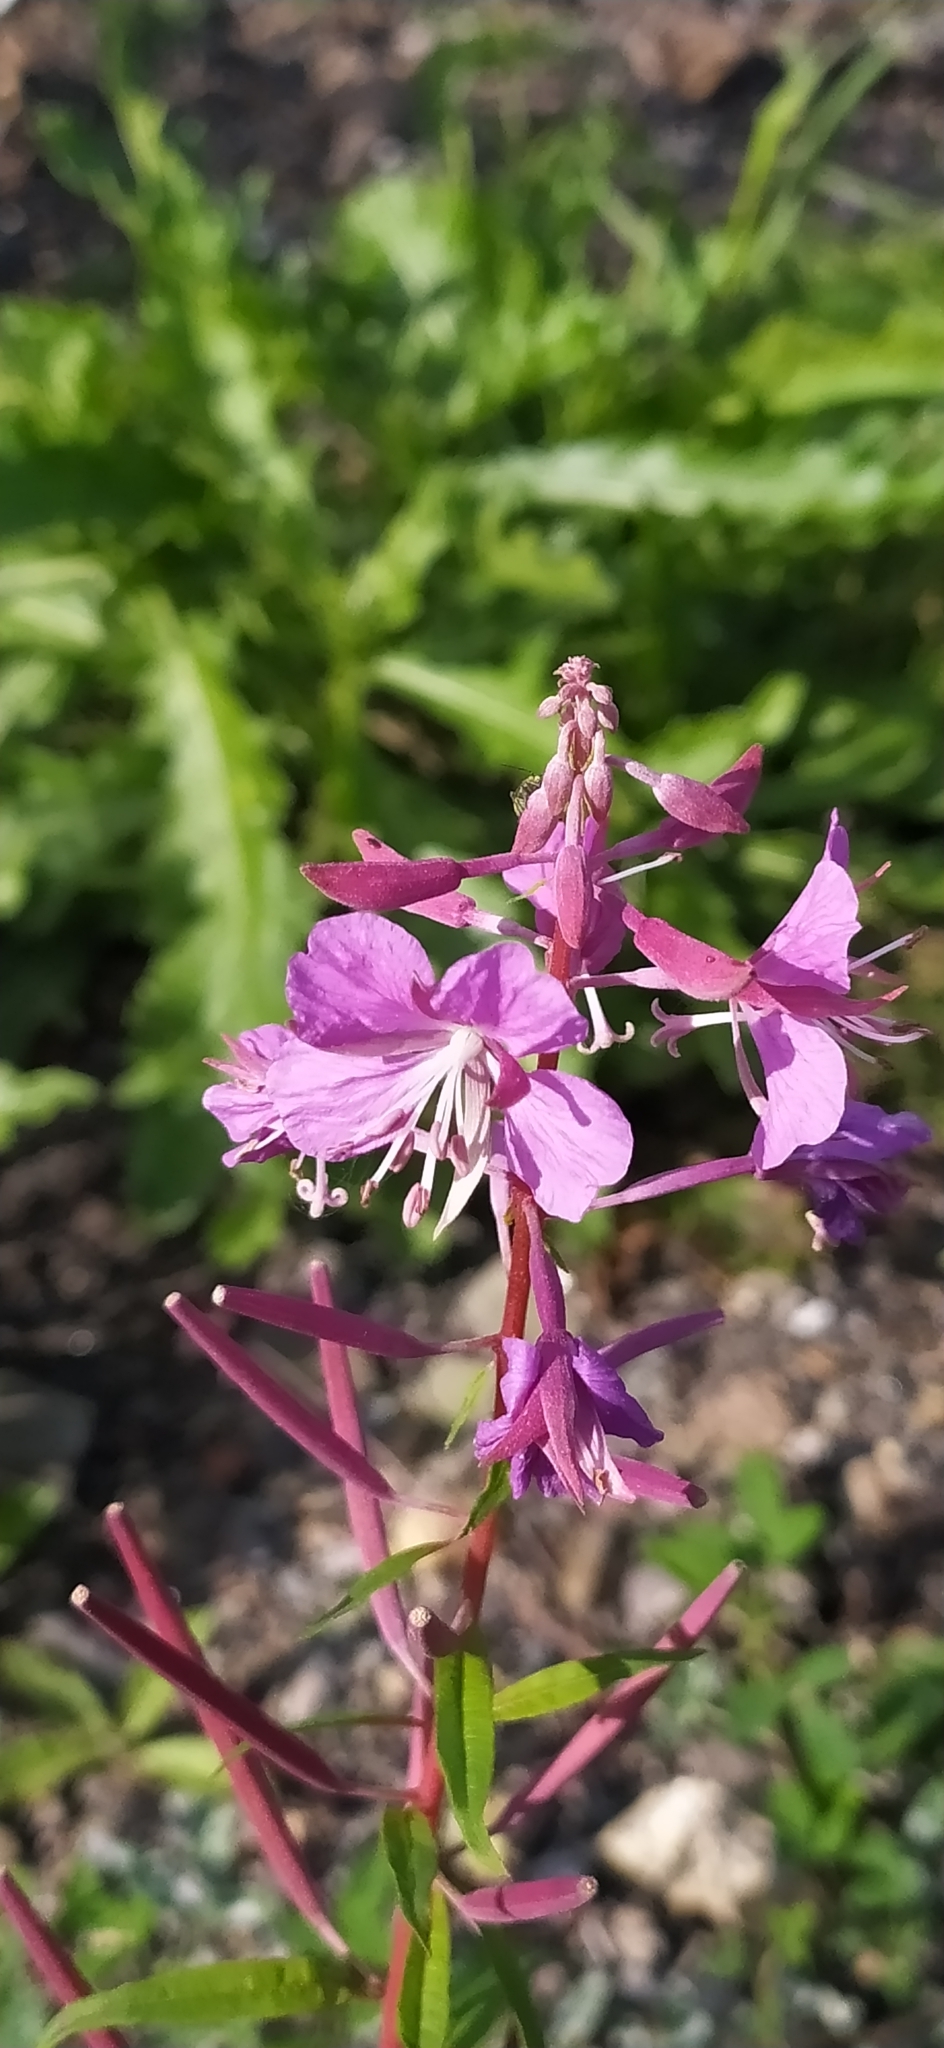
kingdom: Plantae
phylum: Tracheophyta
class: Magnoliopsida
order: Myrtales
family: Onagraceae
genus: Chamaenerion
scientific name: Chamaenerion angustifolium
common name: Fireweed
